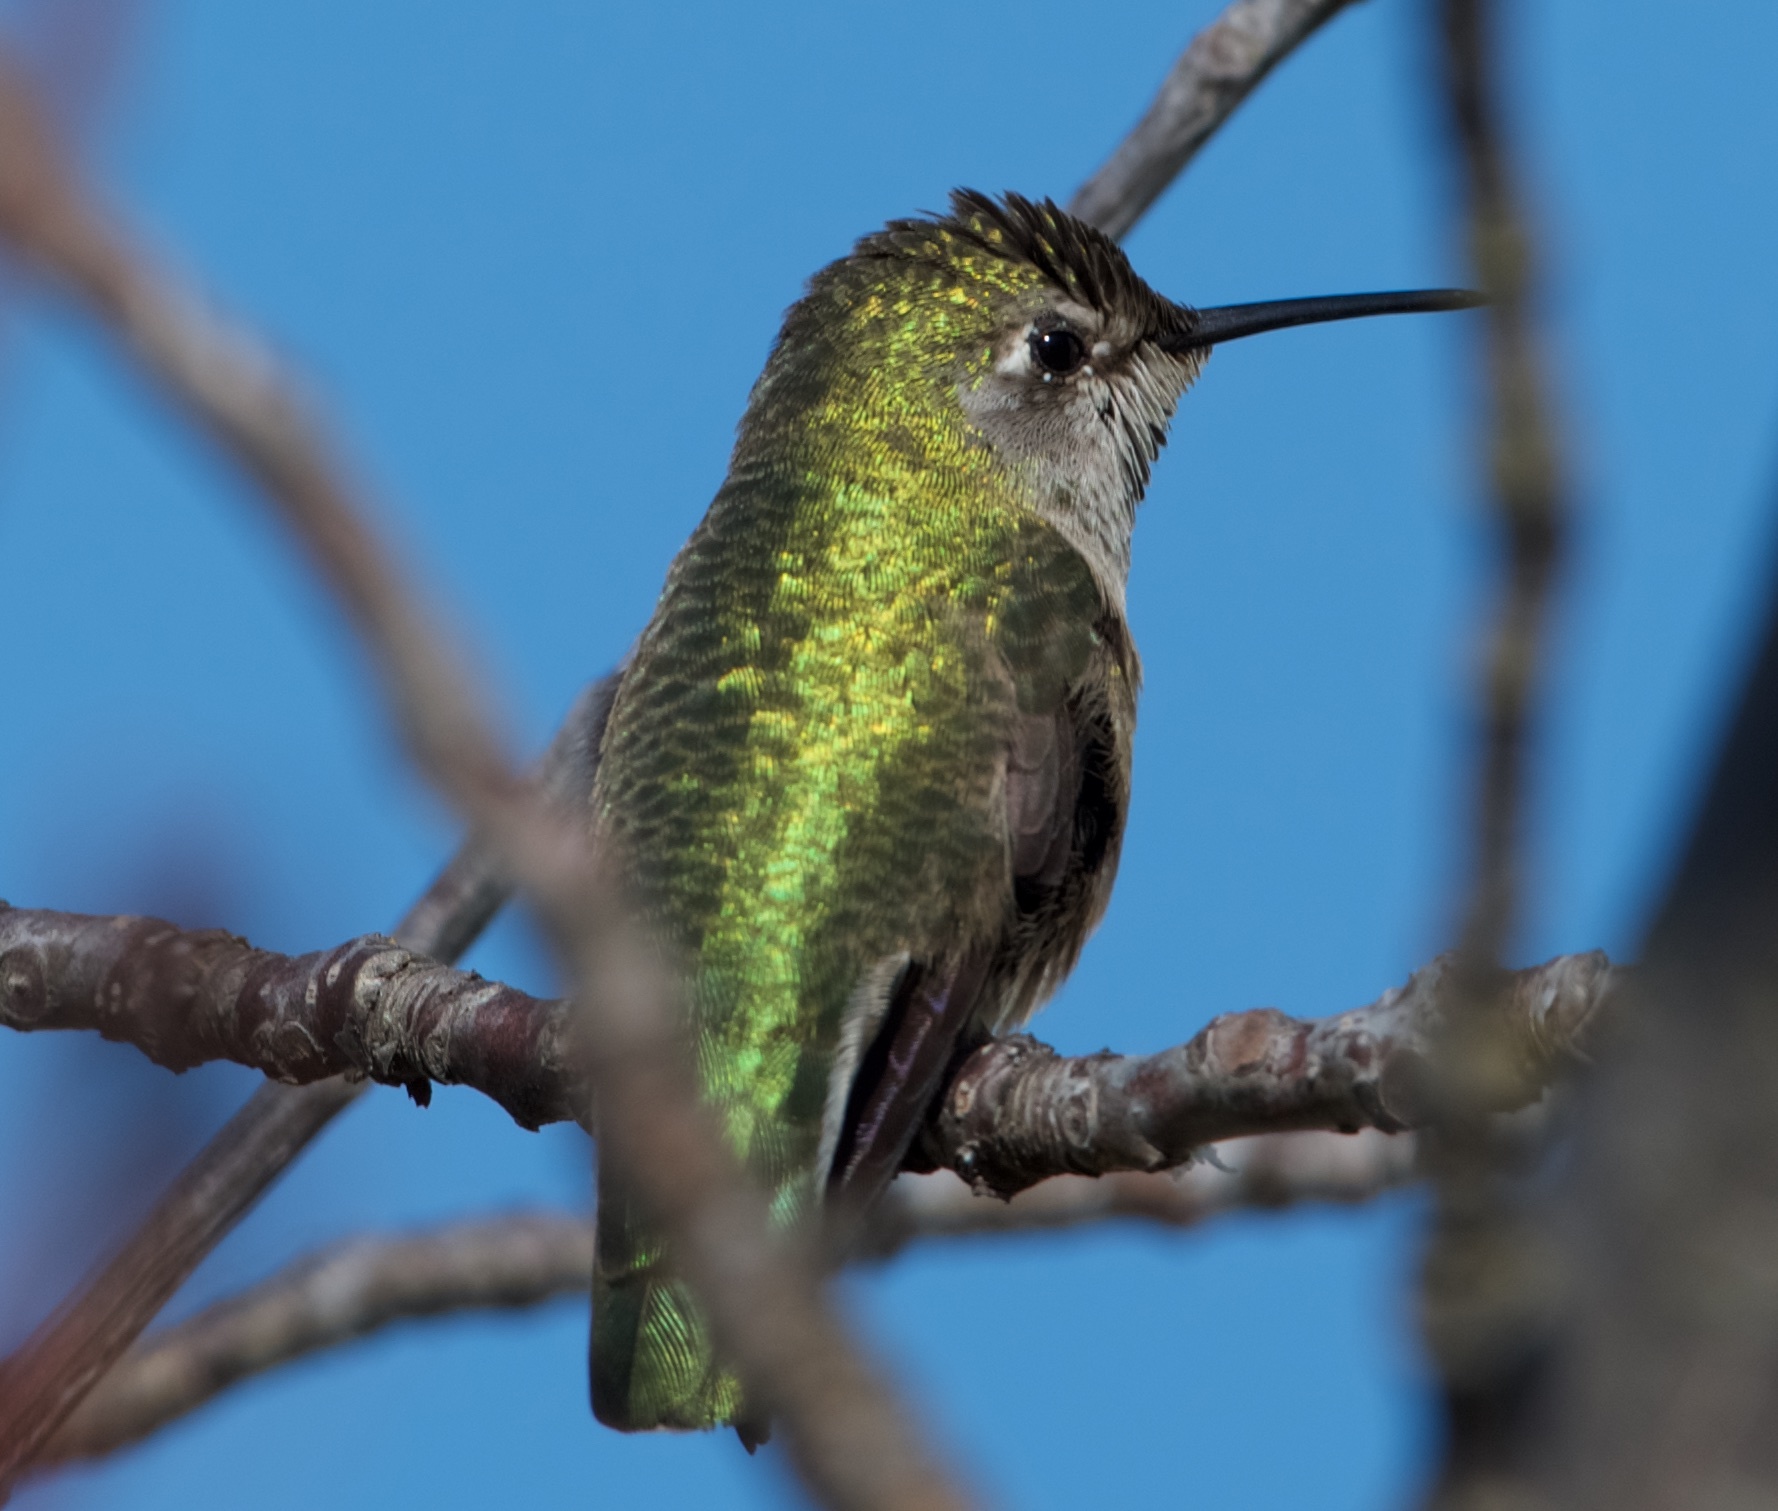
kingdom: Animalia
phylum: Chordata
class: Aves
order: Apodiformes
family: Trochilidae
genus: Calypte
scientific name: Calypte anna
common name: Anna's hummingbird
